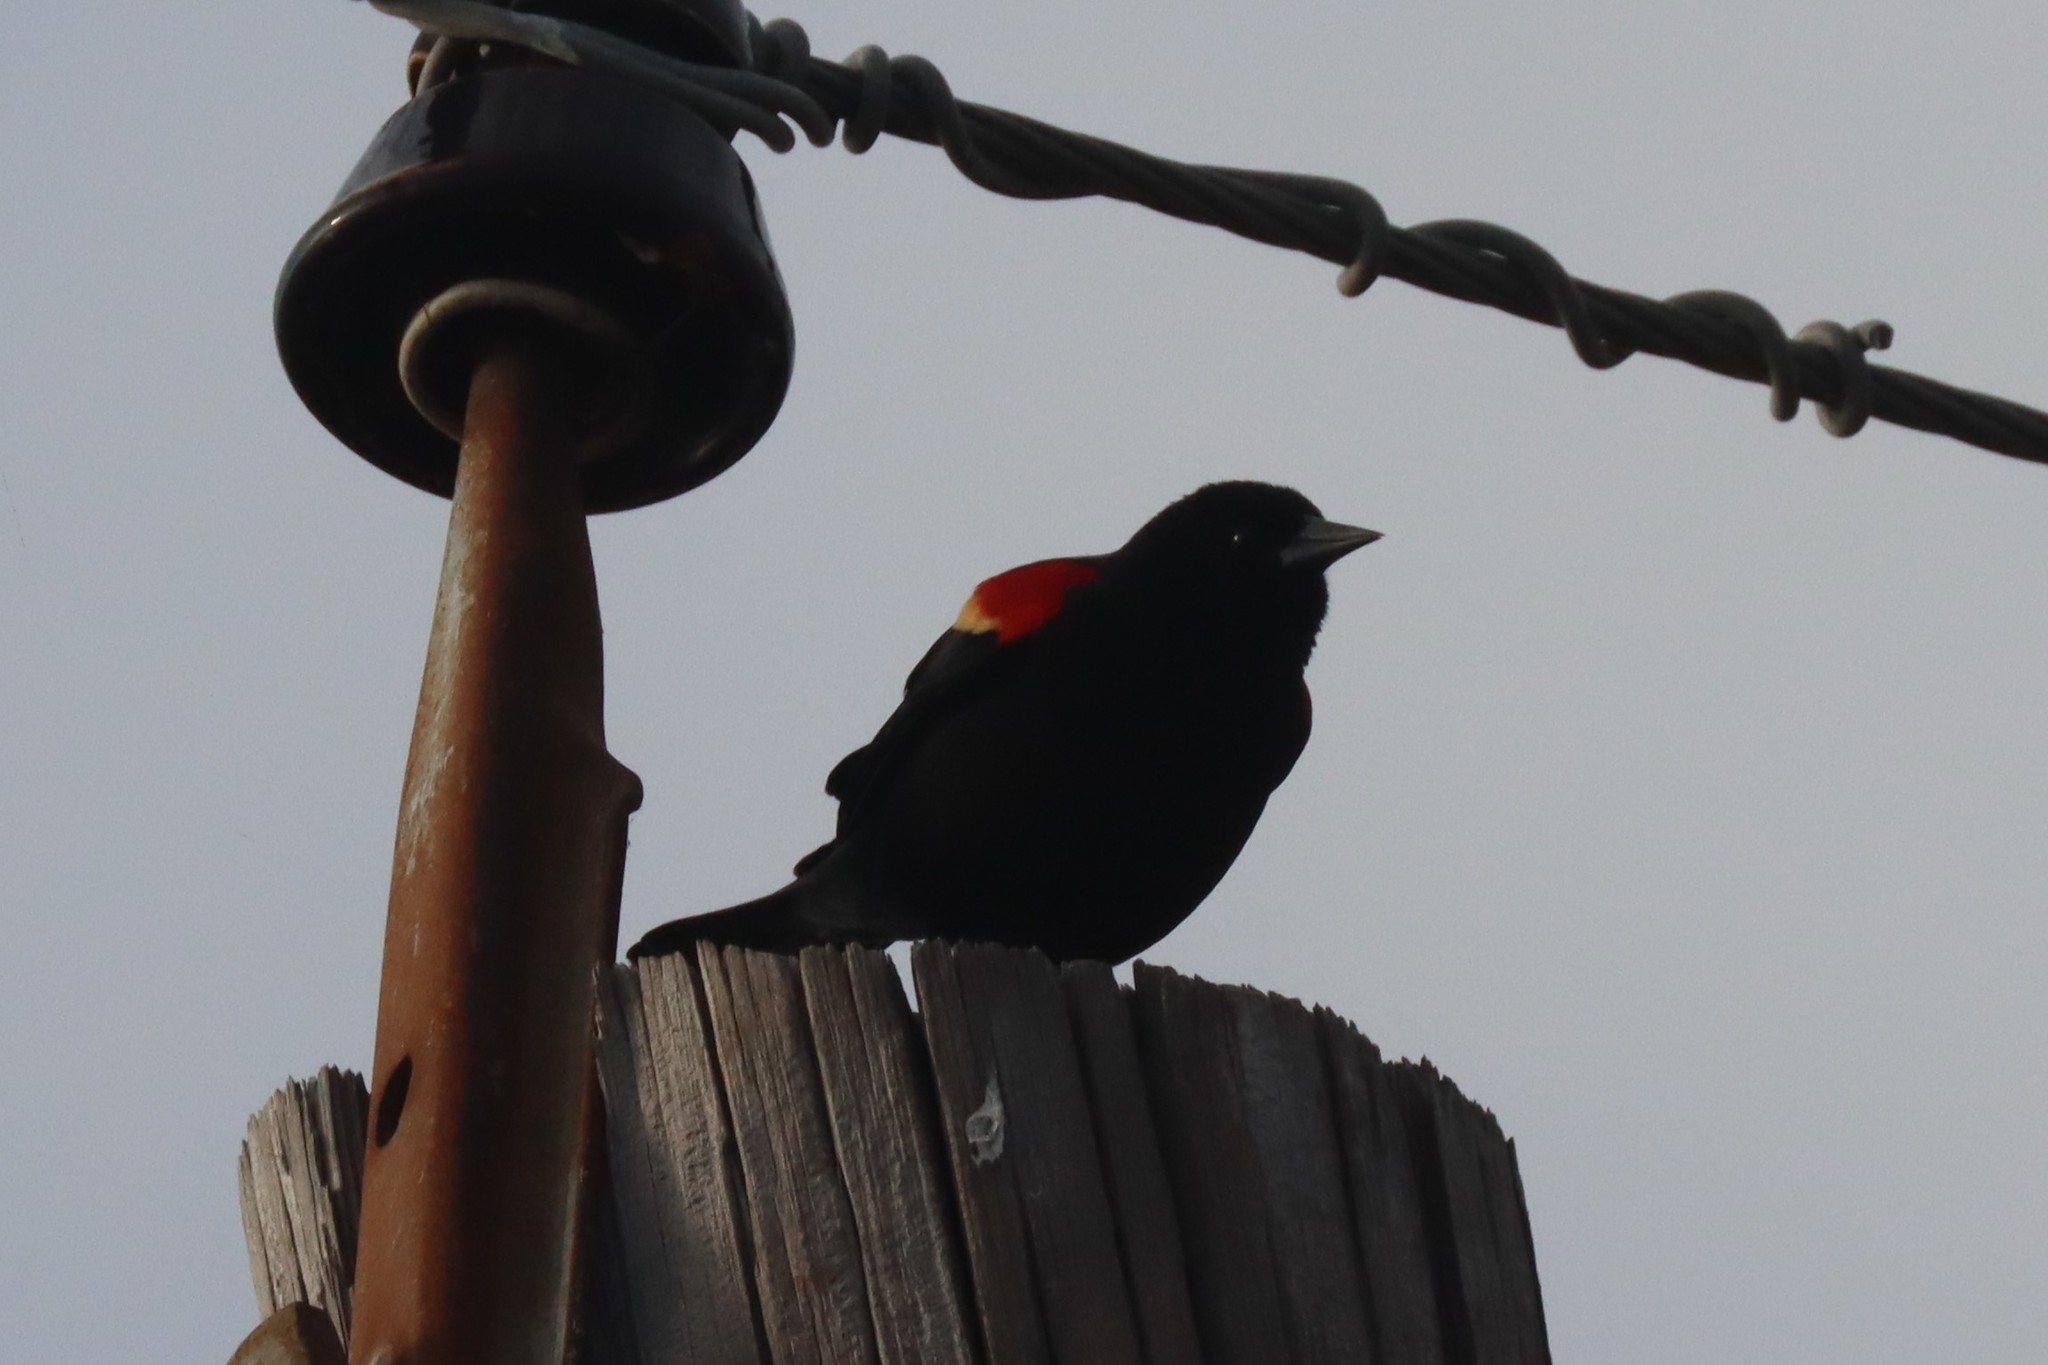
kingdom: Animalia
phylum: Chordata
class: Aves
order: Passeriformes
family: Icteridae
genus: Agelaius
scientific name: Agelaius phoeniceus
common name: Red-winged blackbird
